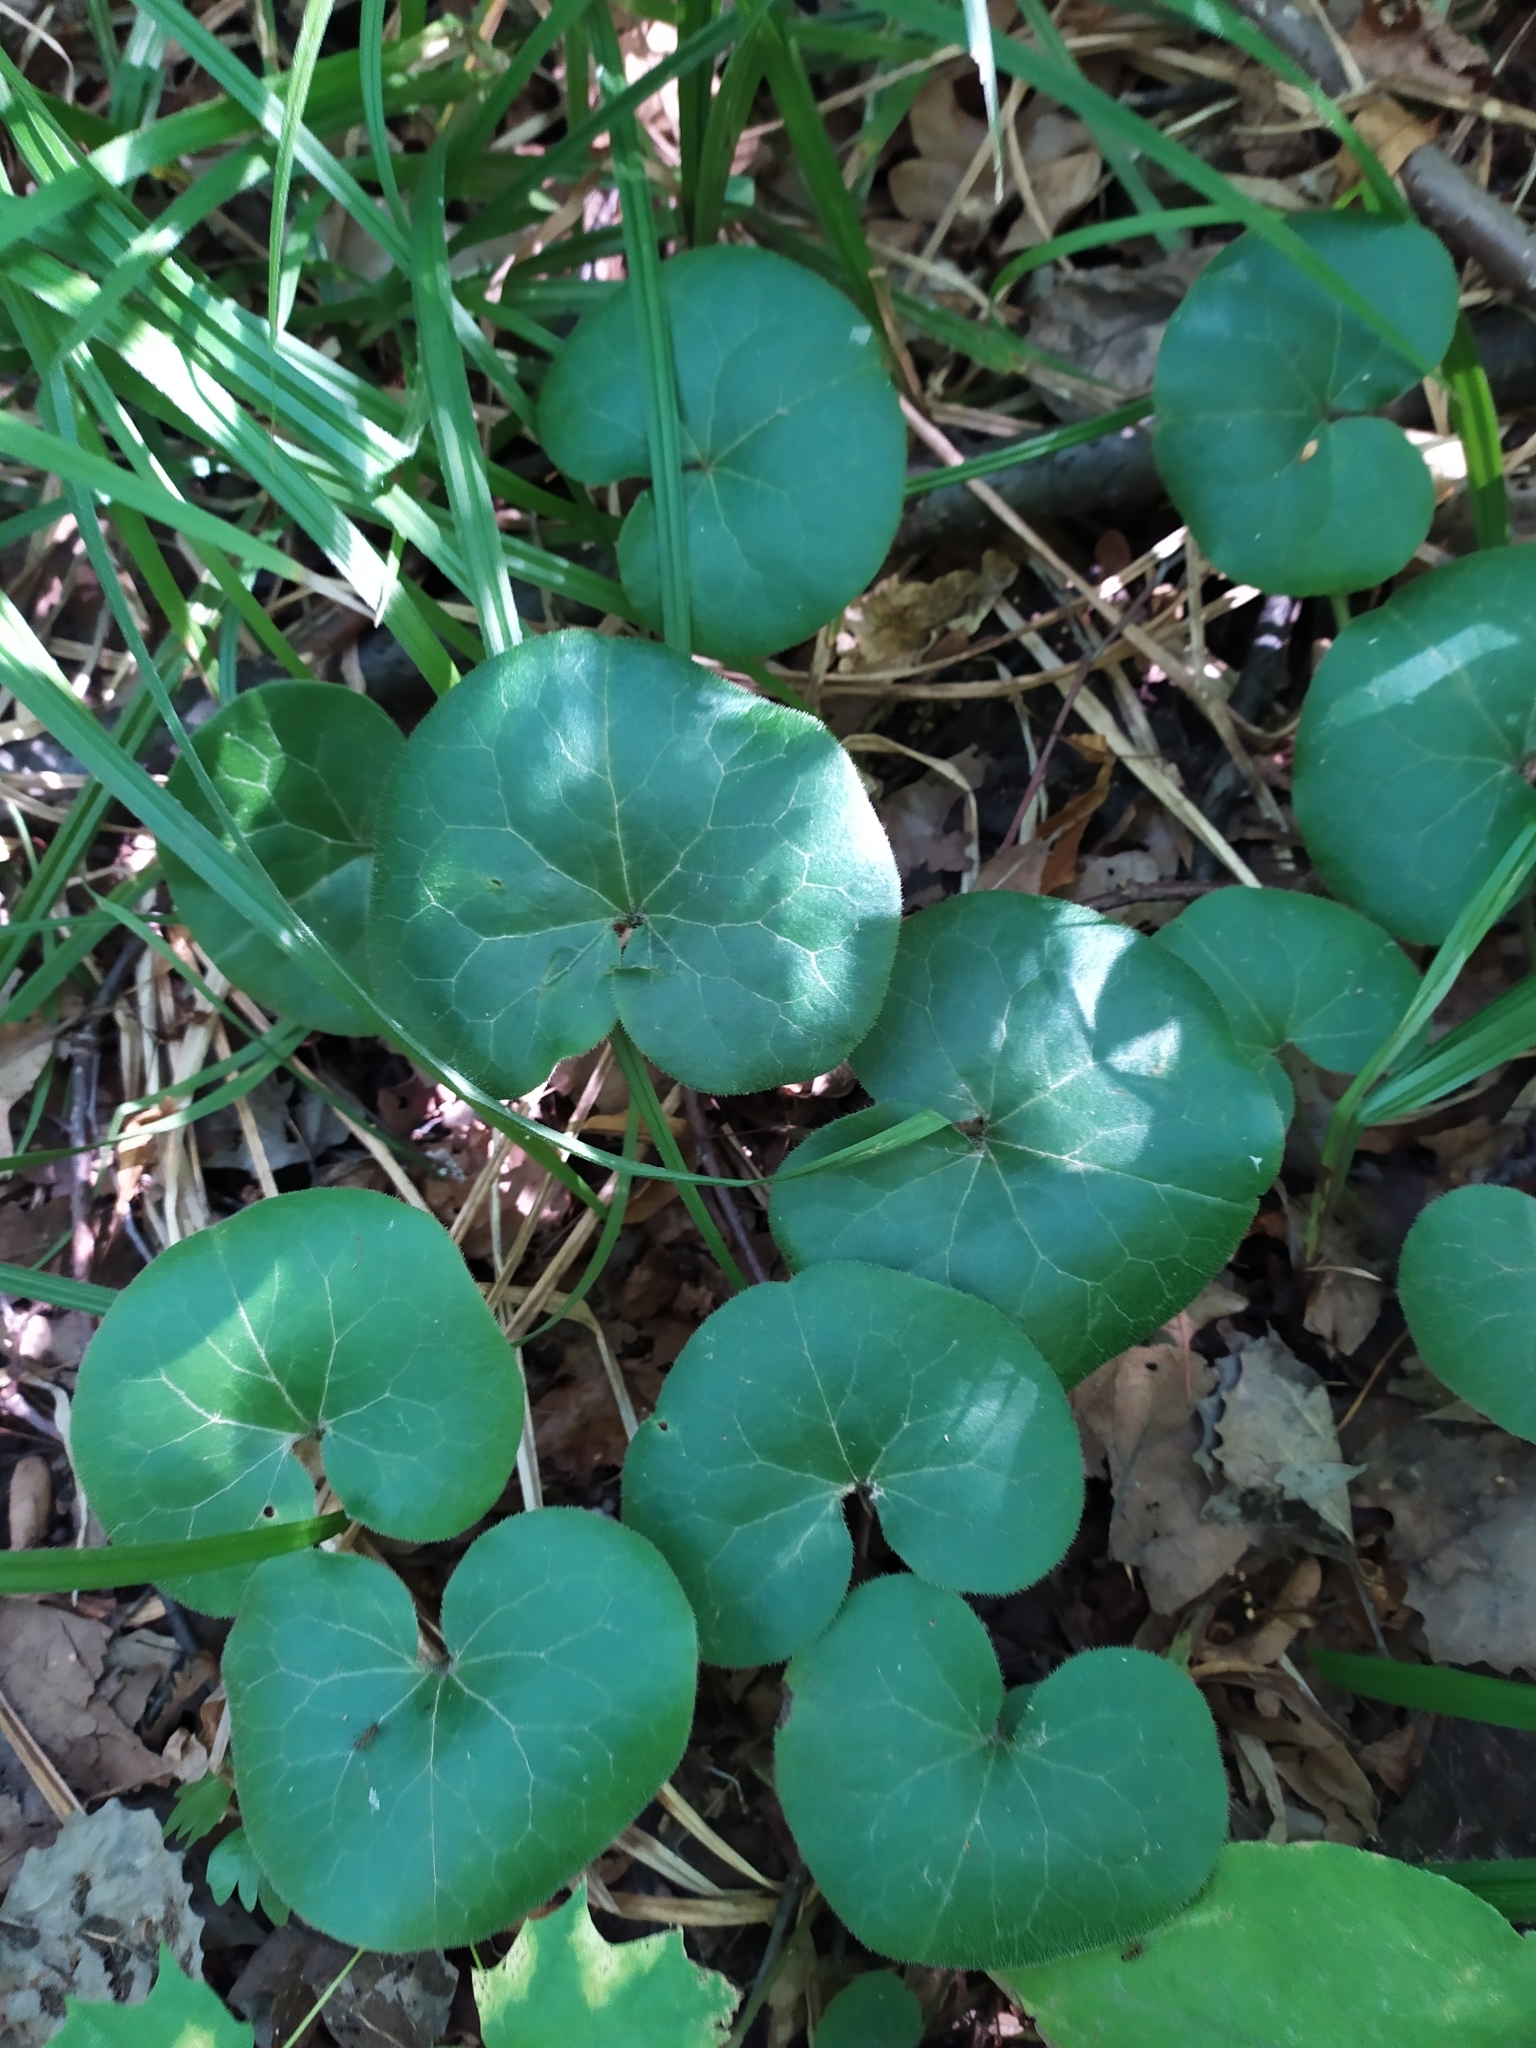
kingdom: Plantae
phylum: Tracheophyta
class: Magnoliopsida
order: Piperales
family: Aristolochiaceae
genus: Asarum
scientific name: Asarum europaeum
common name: Asarabacca
